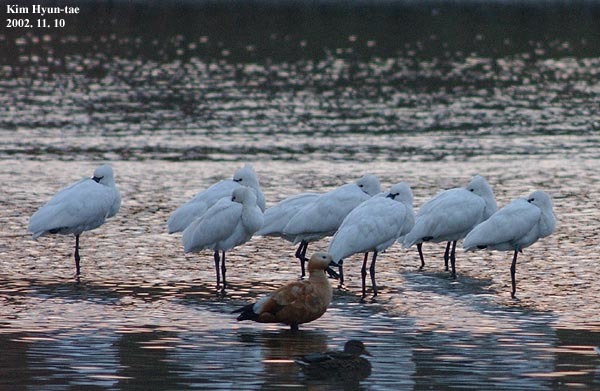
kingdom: Animalia
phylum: Chordata
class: Aves
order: Pelecaniformes
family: Threskiornithidae
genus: Platalea
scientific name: Platalea leucorodia
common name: Eurasian spoonbill
